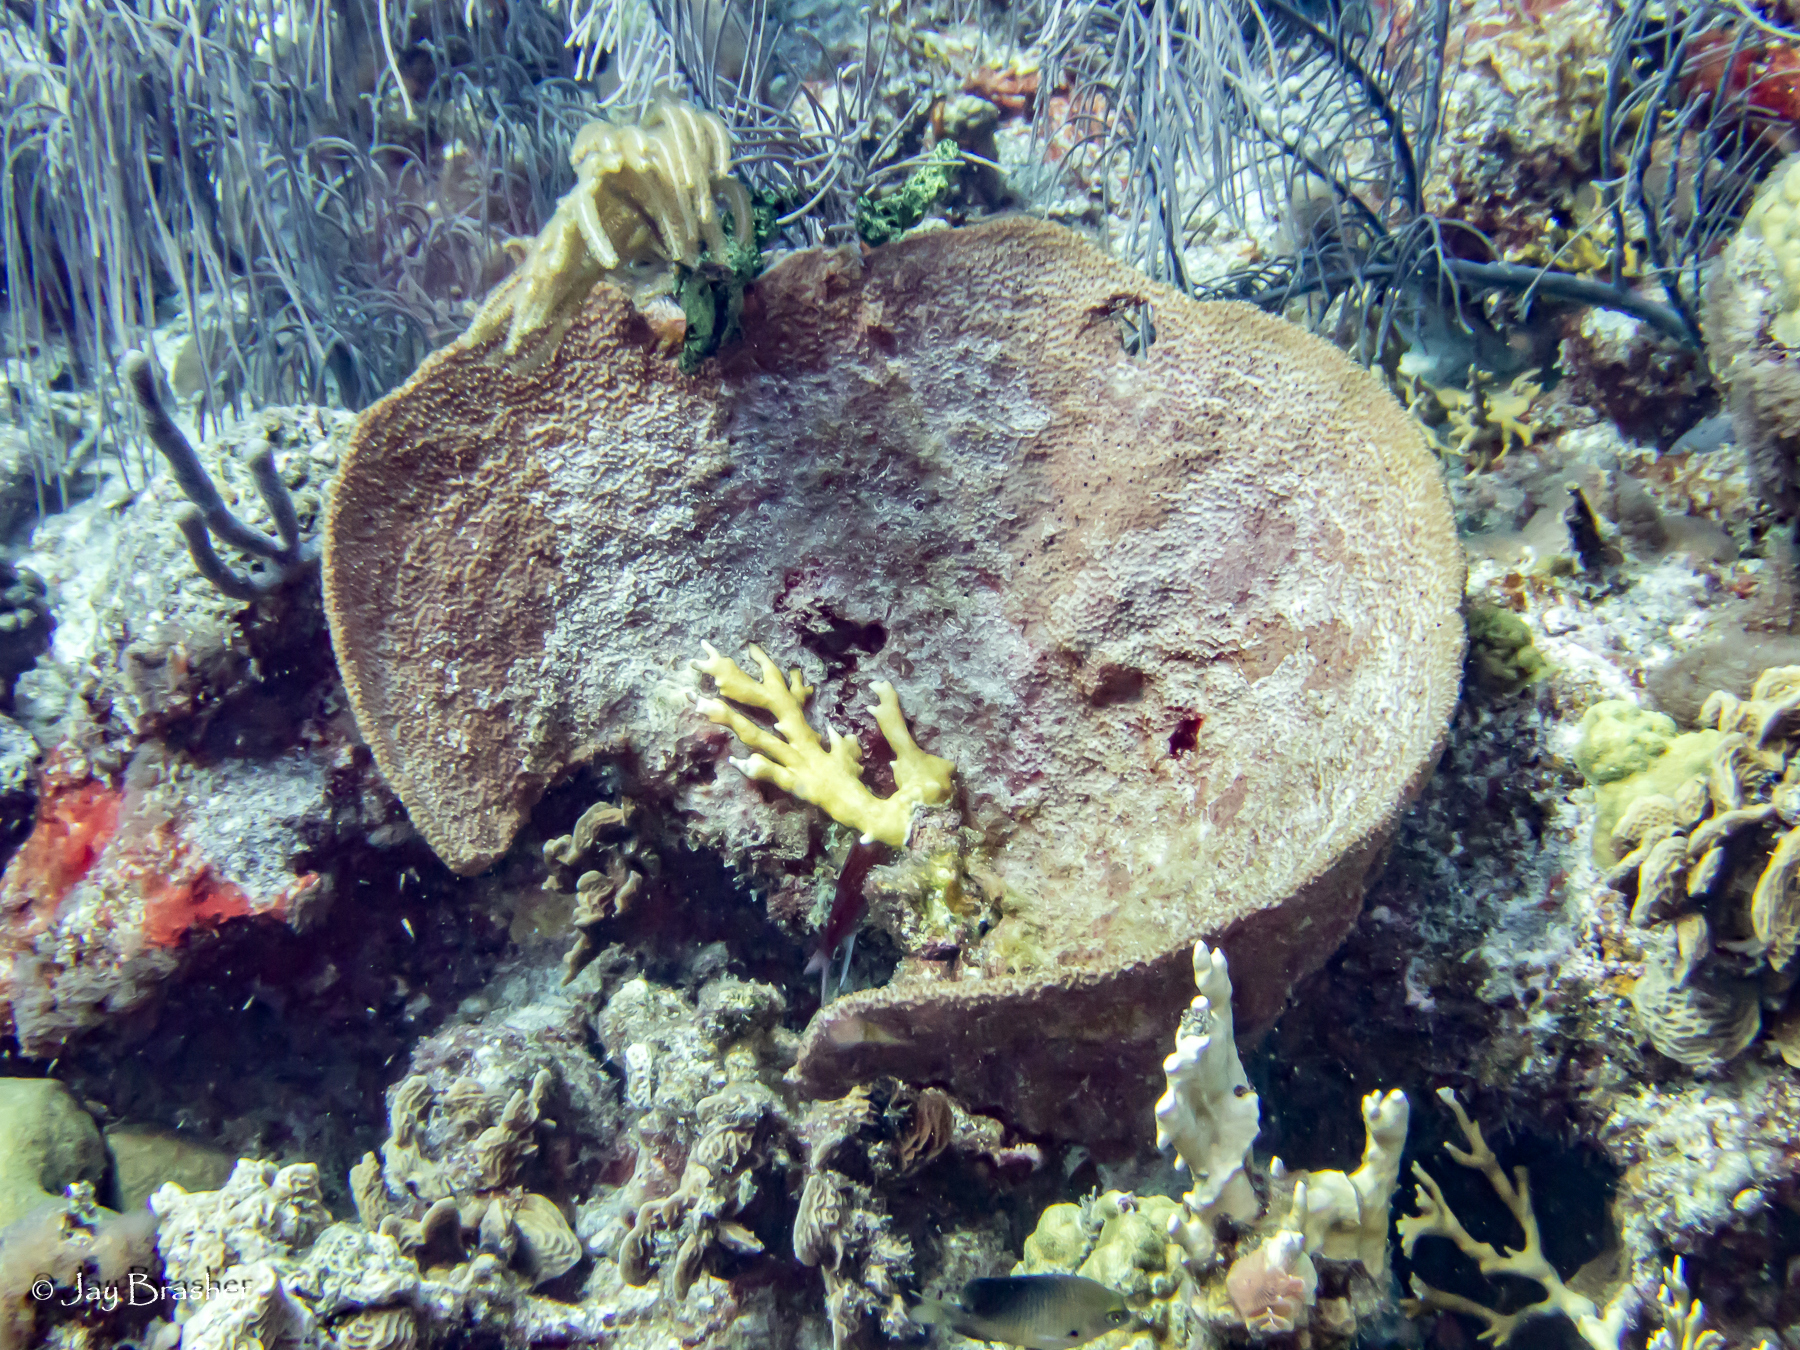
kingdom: Animalia
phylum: Porifera
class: Demospongiae
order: Dictyoceratida
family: Irciniidae
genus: Ircinia
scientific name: Ircinia campana
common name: Vase sponge
